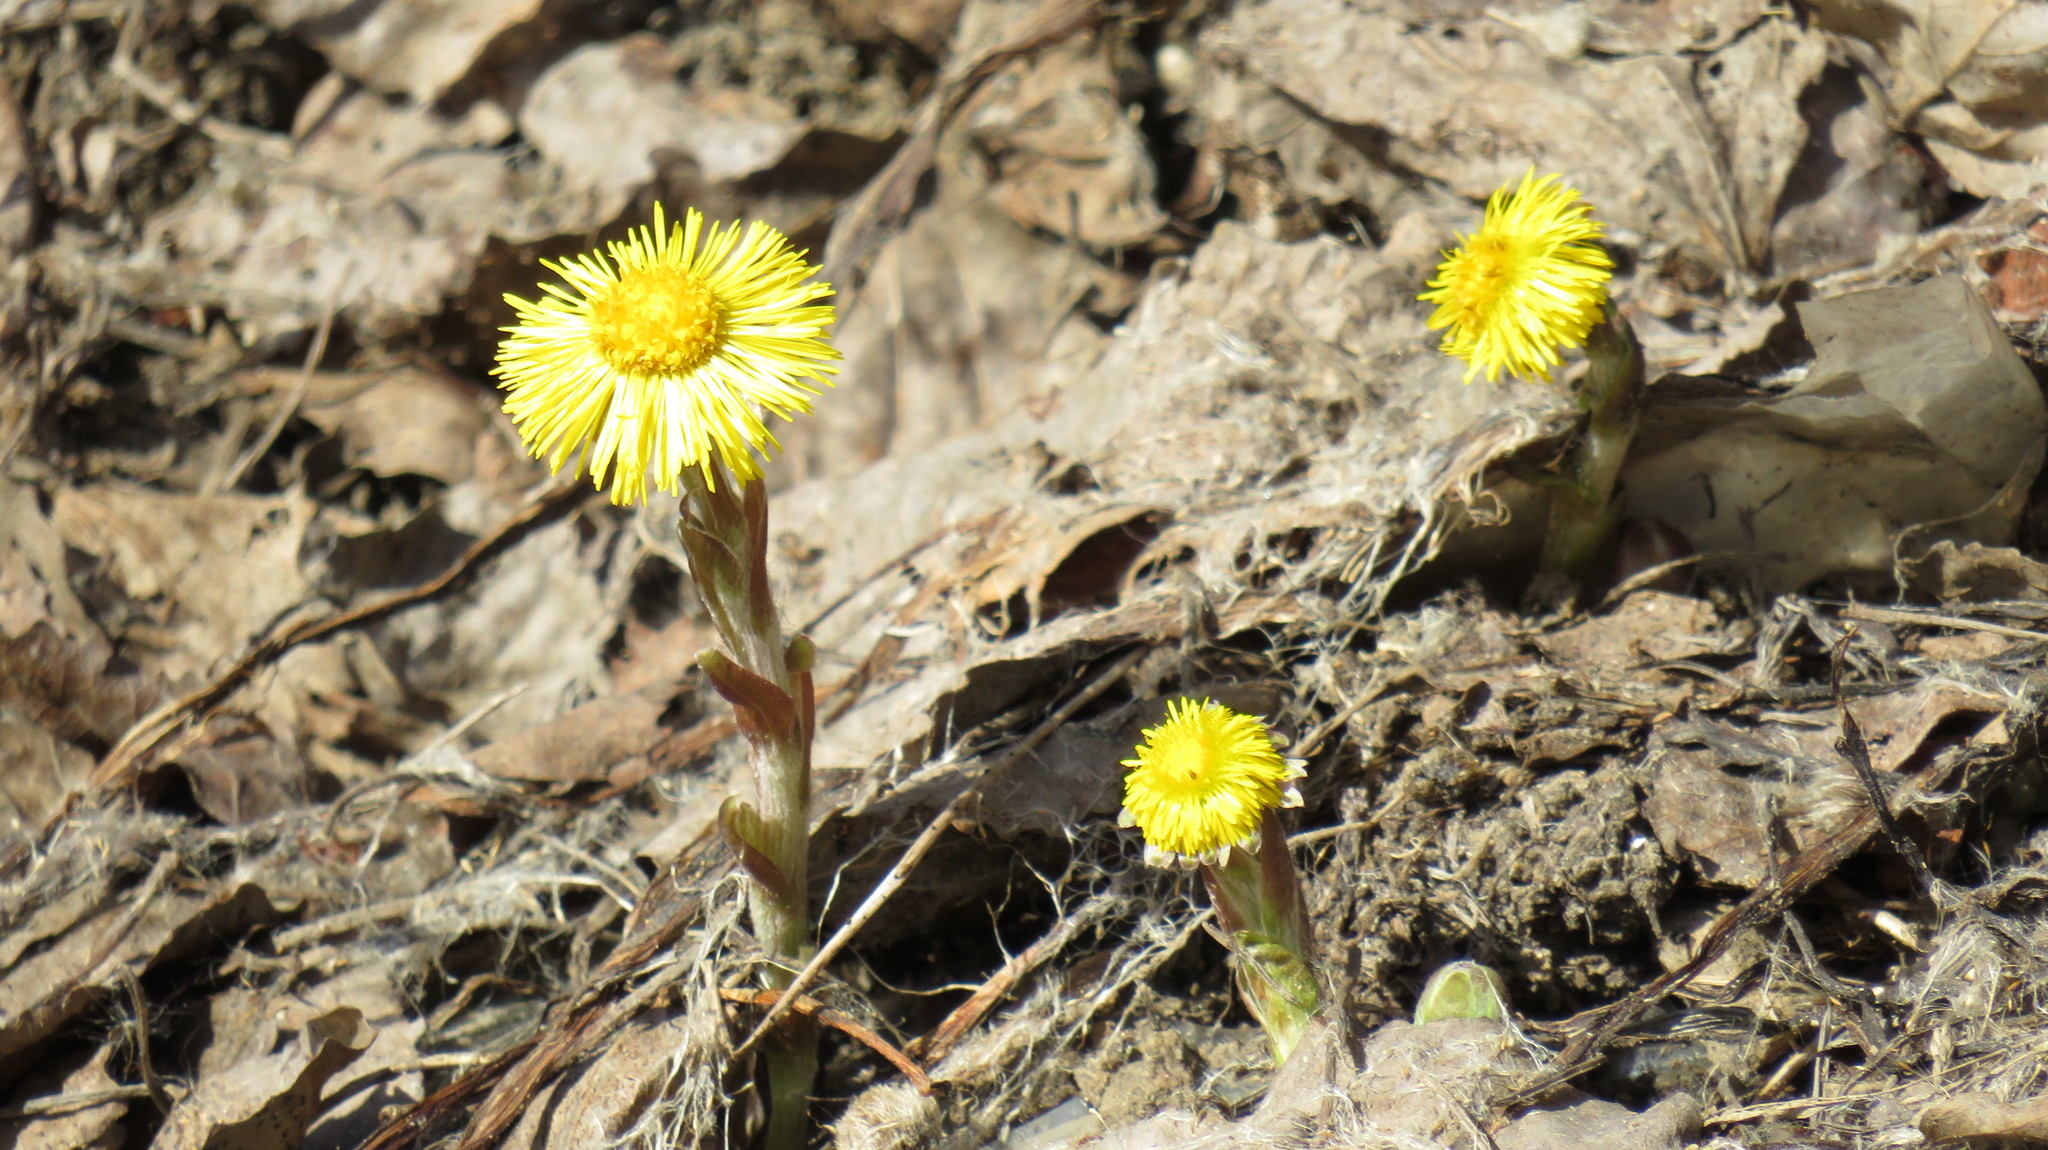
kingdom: Plantae
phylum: Tracheophyta
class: Magnoliopsida
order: Asterales
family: Asteraceae
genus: Tussilago
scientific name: Tussilago farfara
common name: Coltsfoot
